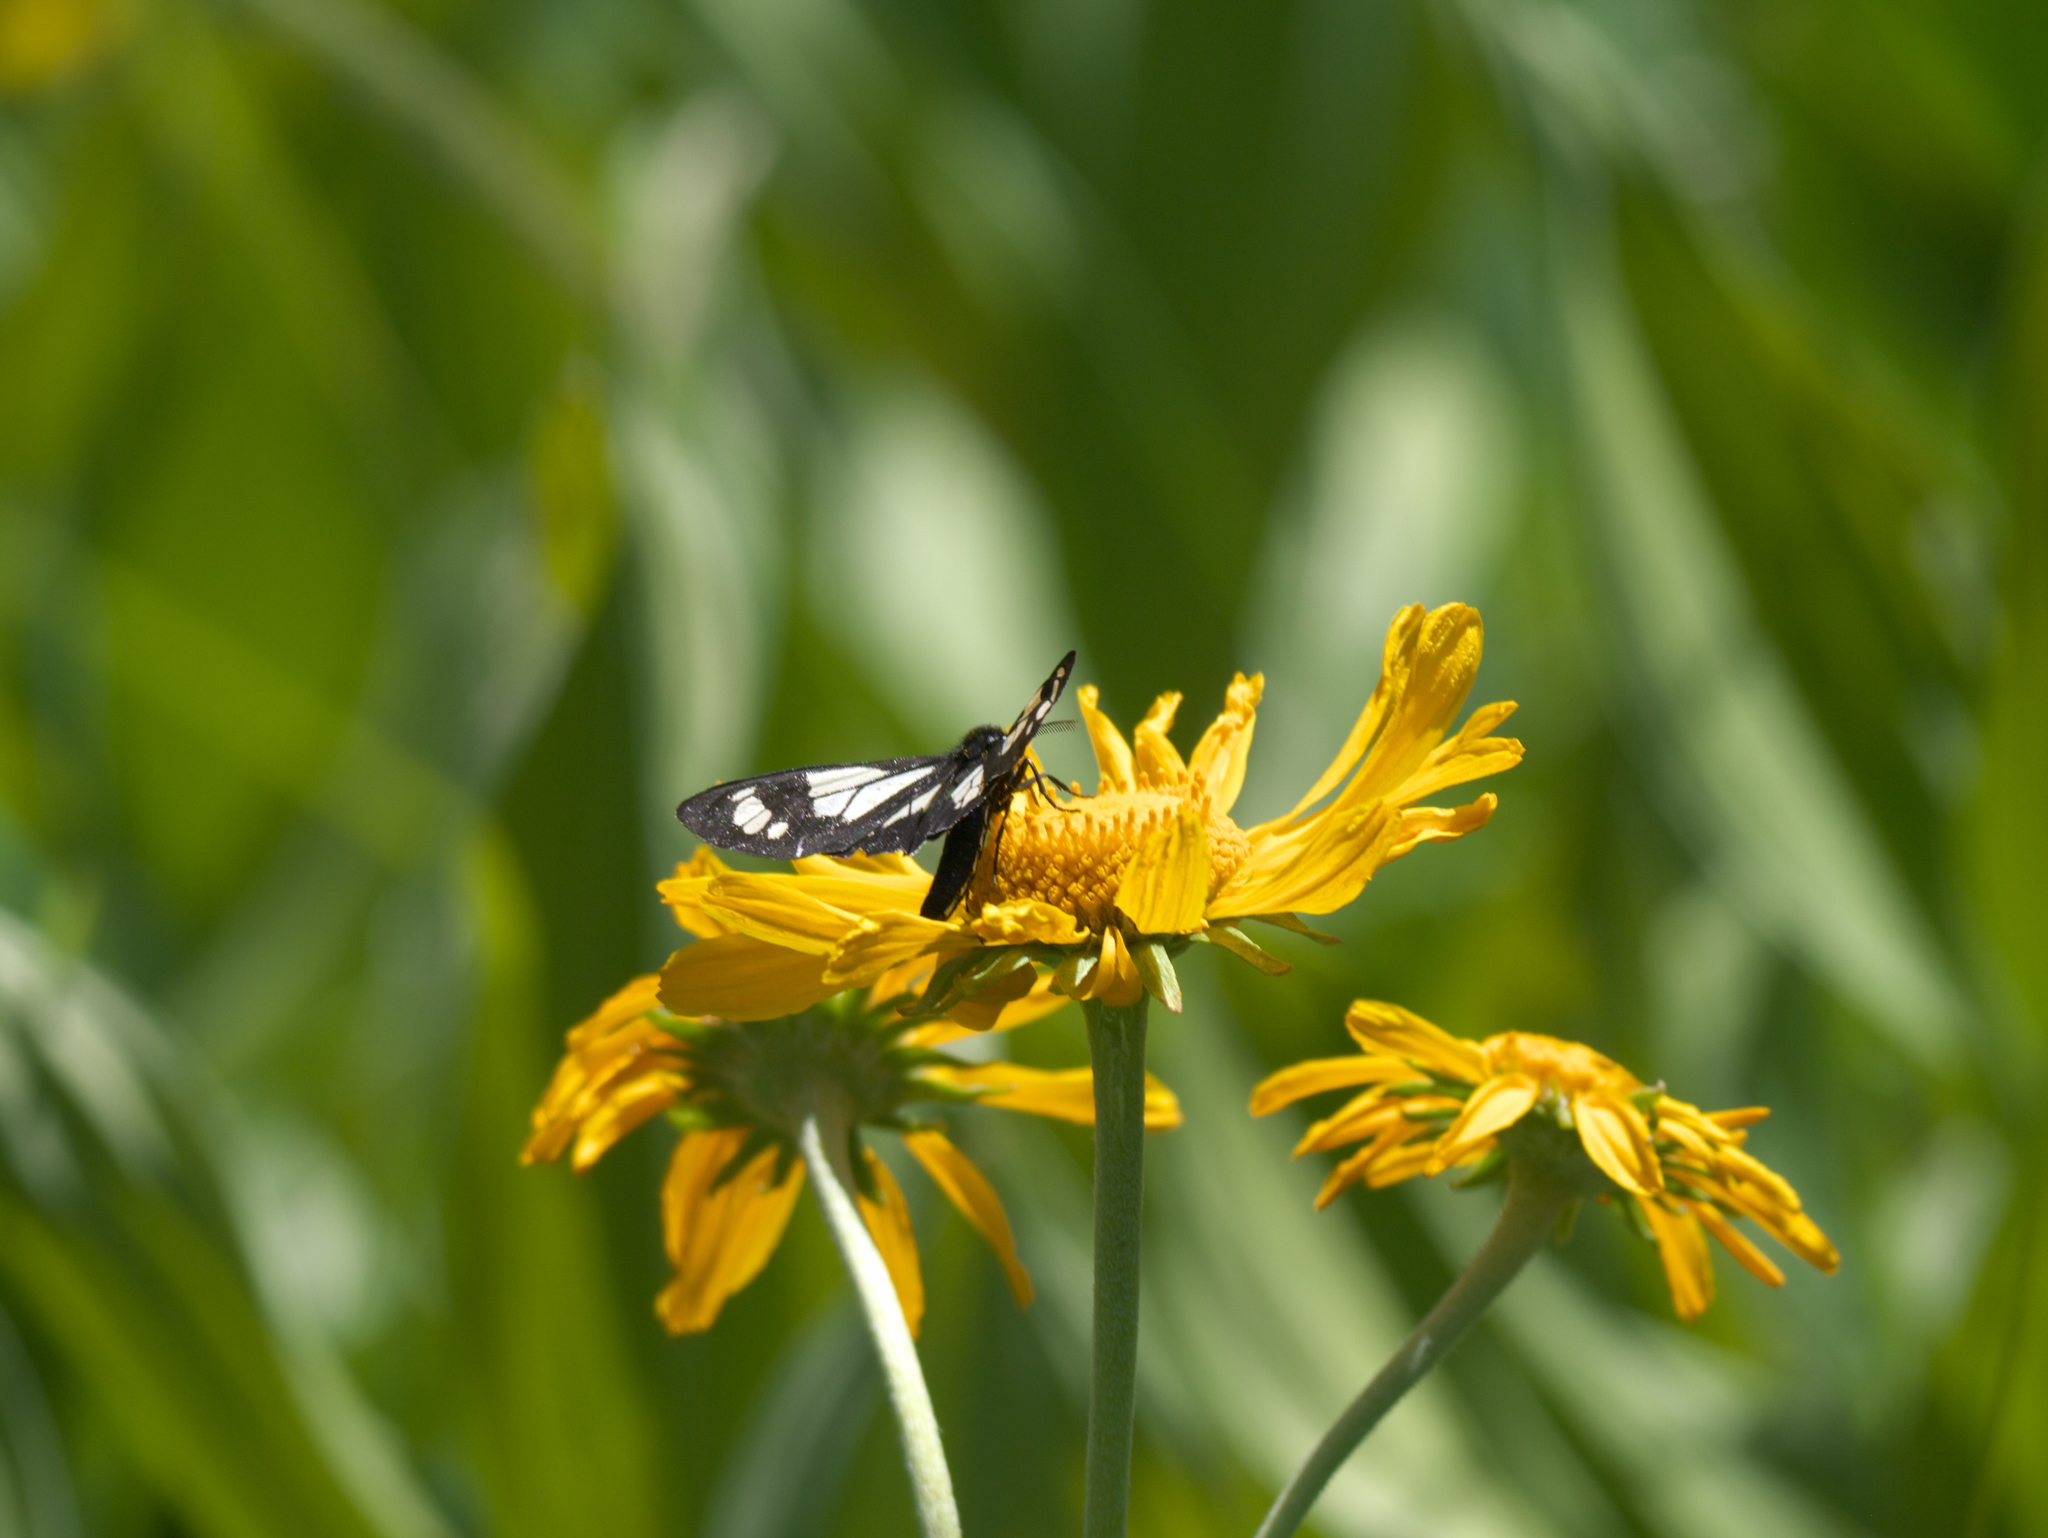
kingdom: Animalia
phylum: Arthropoda
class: Insecta
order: Lepidoptera
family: Erebidae
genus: Gnophaela
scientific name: Gnophaela vermiculata
